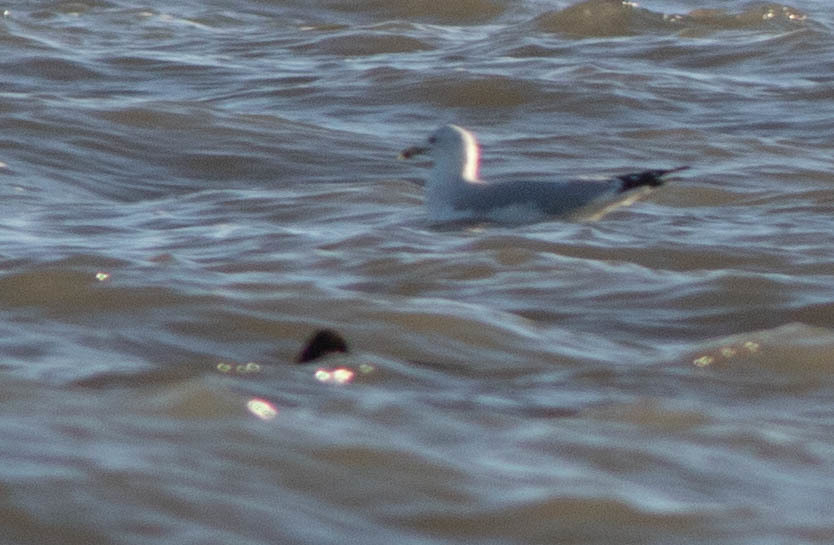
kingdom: Animalia
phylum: Chordata
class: Aves
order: Charadriiformes
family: Laridae
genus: Larus
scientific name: Larus delawarensis
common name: Ring-billed gull
